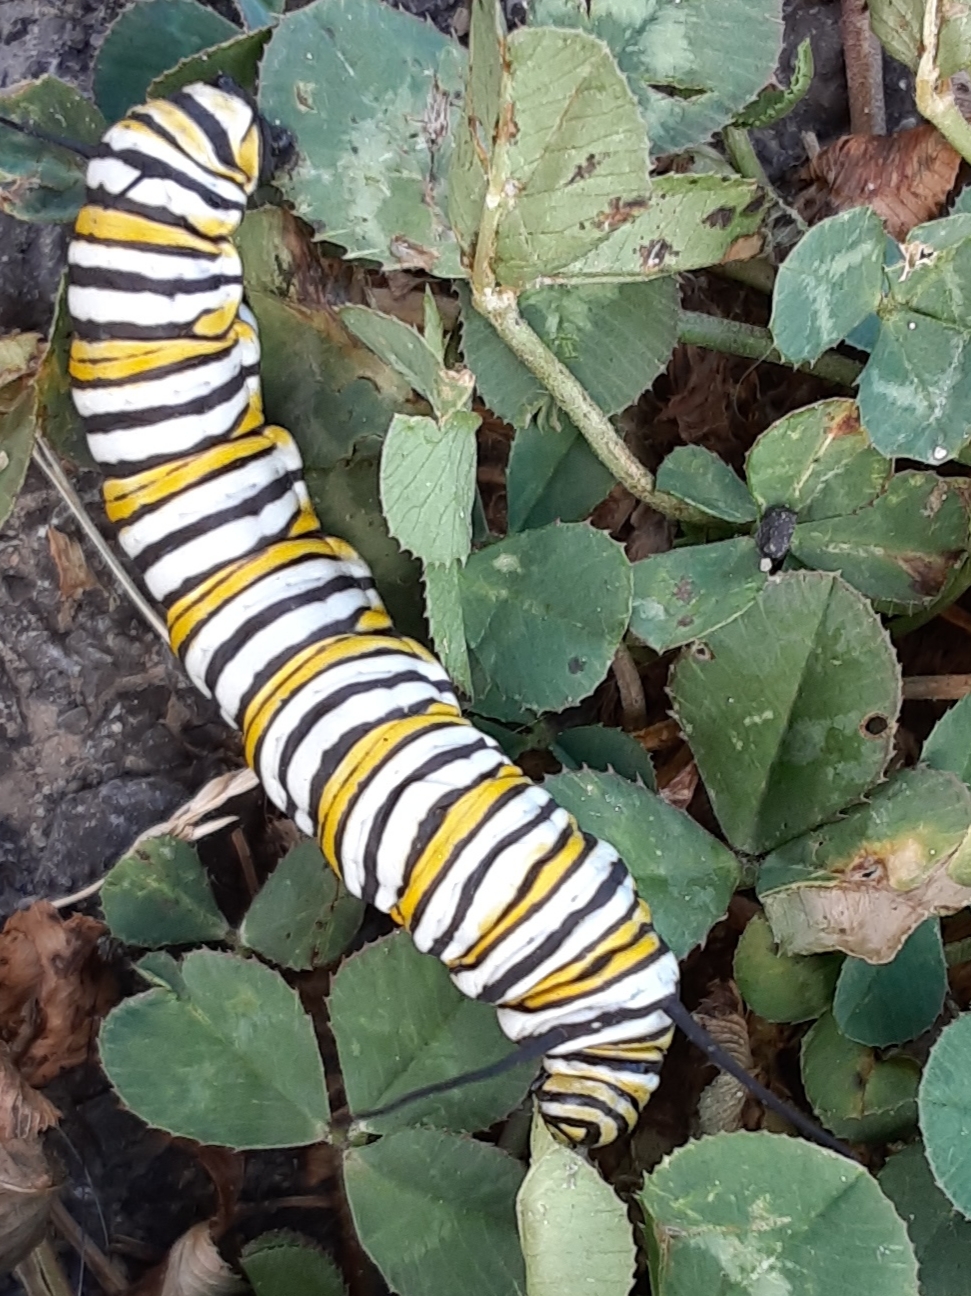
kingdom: Animalia
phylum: Arthropoda
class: Insecta
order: Lepidoptera
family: Nymphalidae
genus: Danaus
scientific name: Danaus plexippus
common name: Monarch
